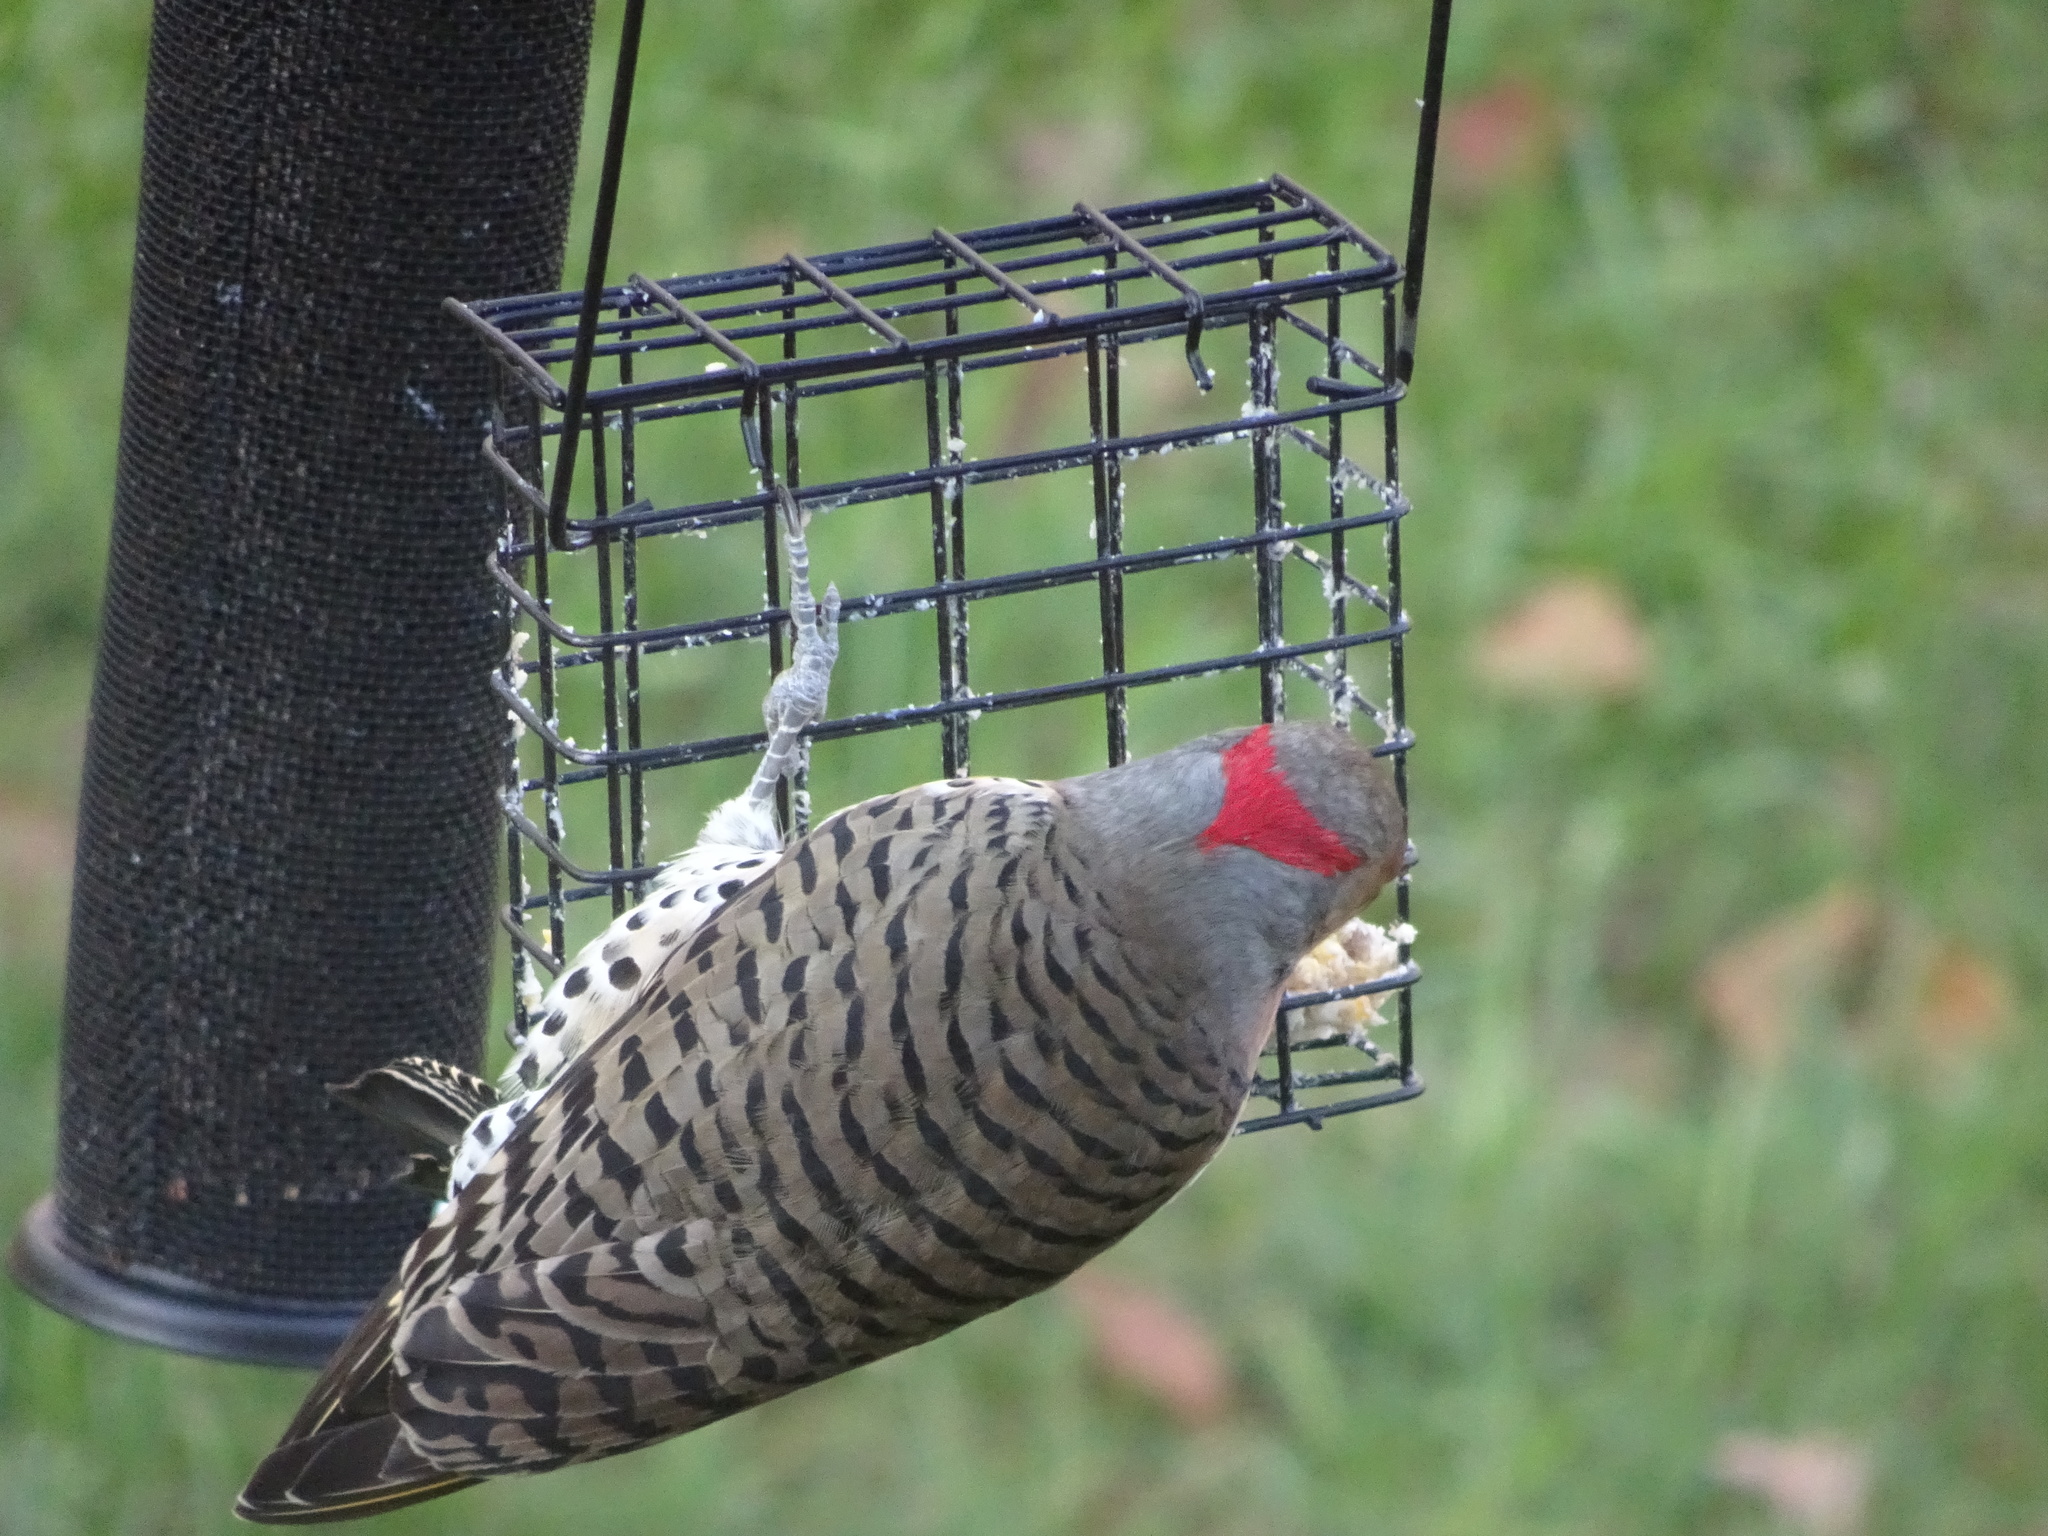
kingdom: Animalia
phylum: Chordata
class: Aves
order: Piciformes
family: Picidae
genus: Colaptes
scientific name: Colaptes auratus
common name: Northern flicker
